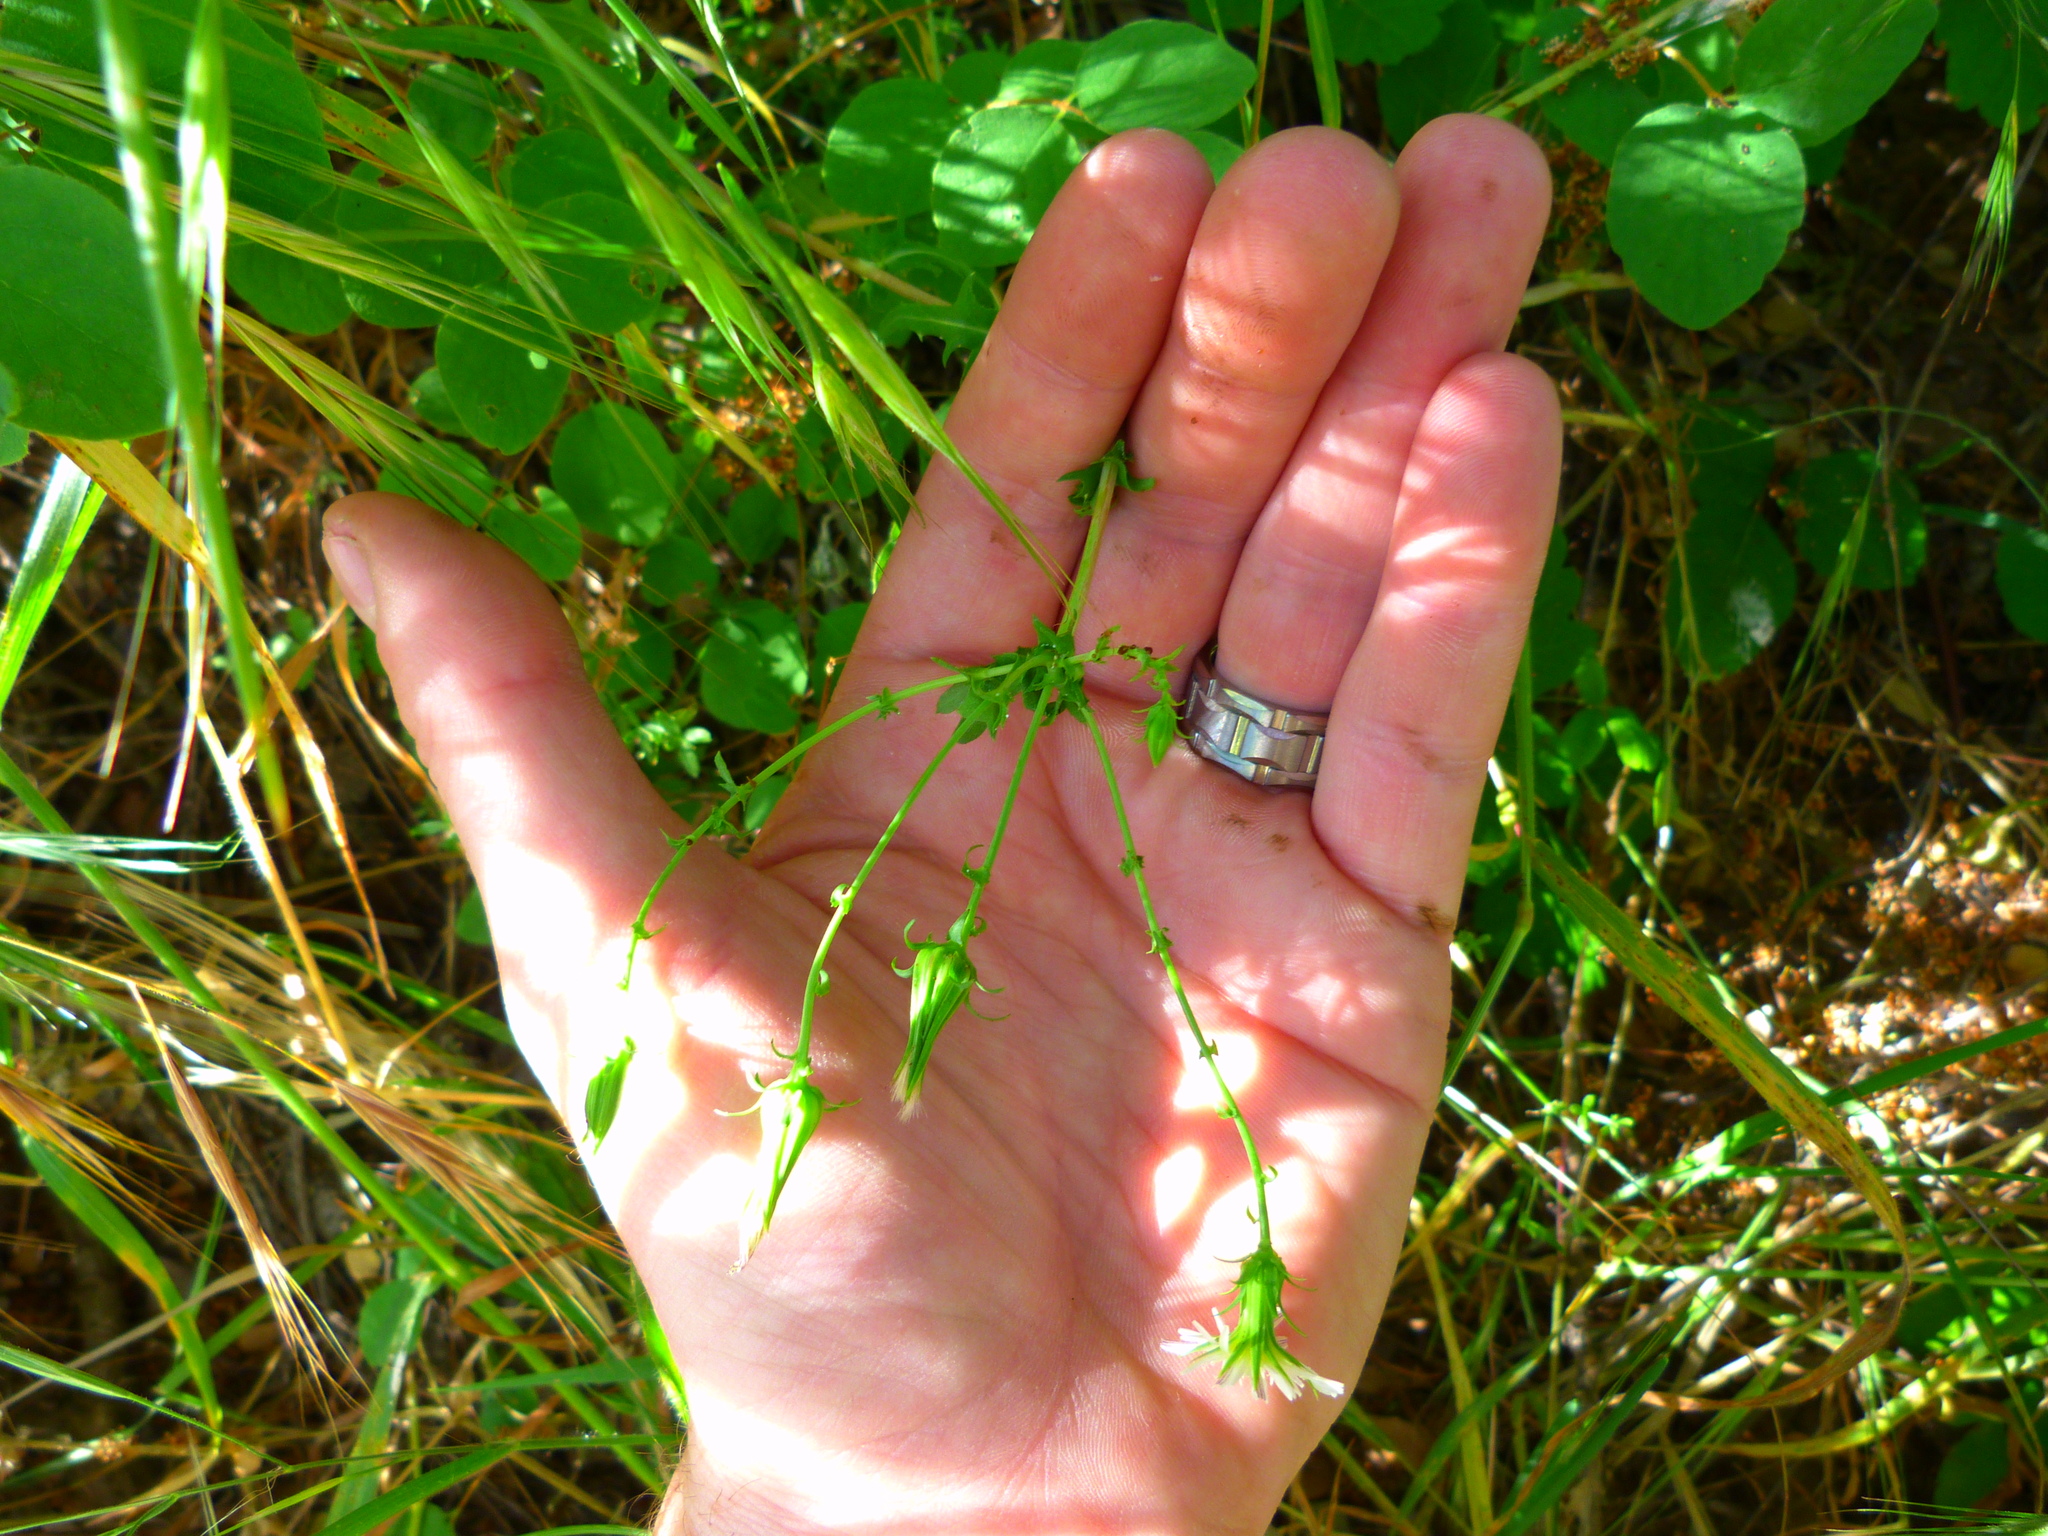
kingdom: Plantae
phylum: Tracheophyta
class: Magnoliopsida
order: Asterales
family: Asteraceae
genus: Rafinesquia
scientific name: Rafinesquia californica
